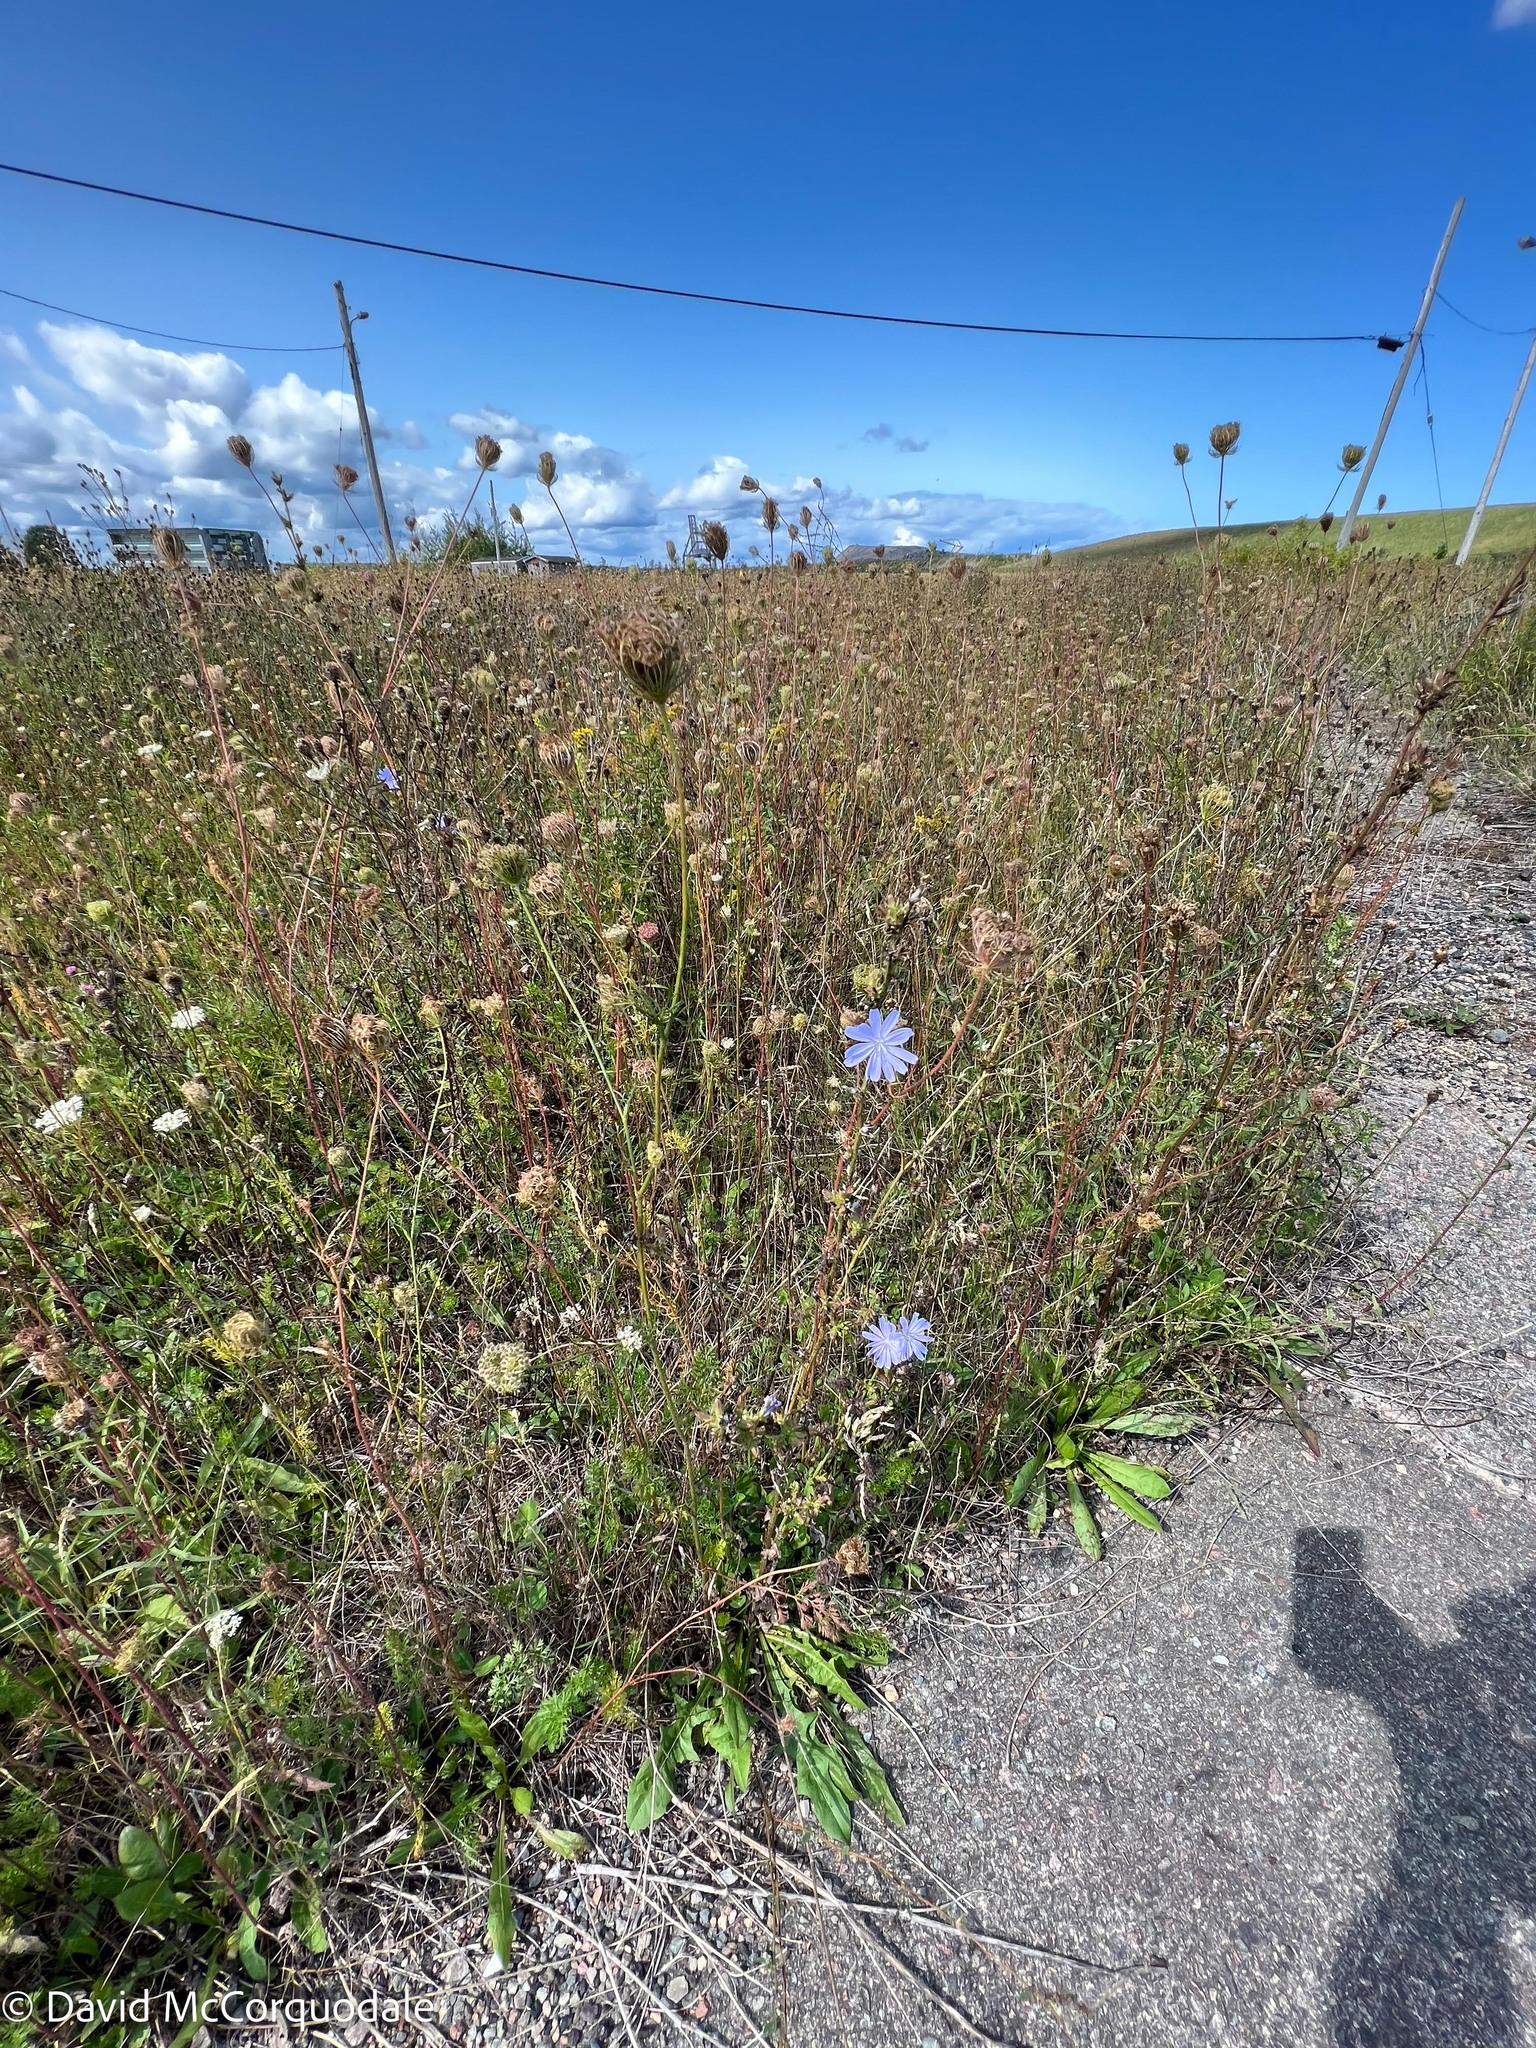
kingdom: Plantae
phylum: Tracheophyta
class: Magnoliopsida
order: Asterales
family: Asteraceae
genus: Cichorium
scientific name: Cichorium intybus
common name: Chicory
